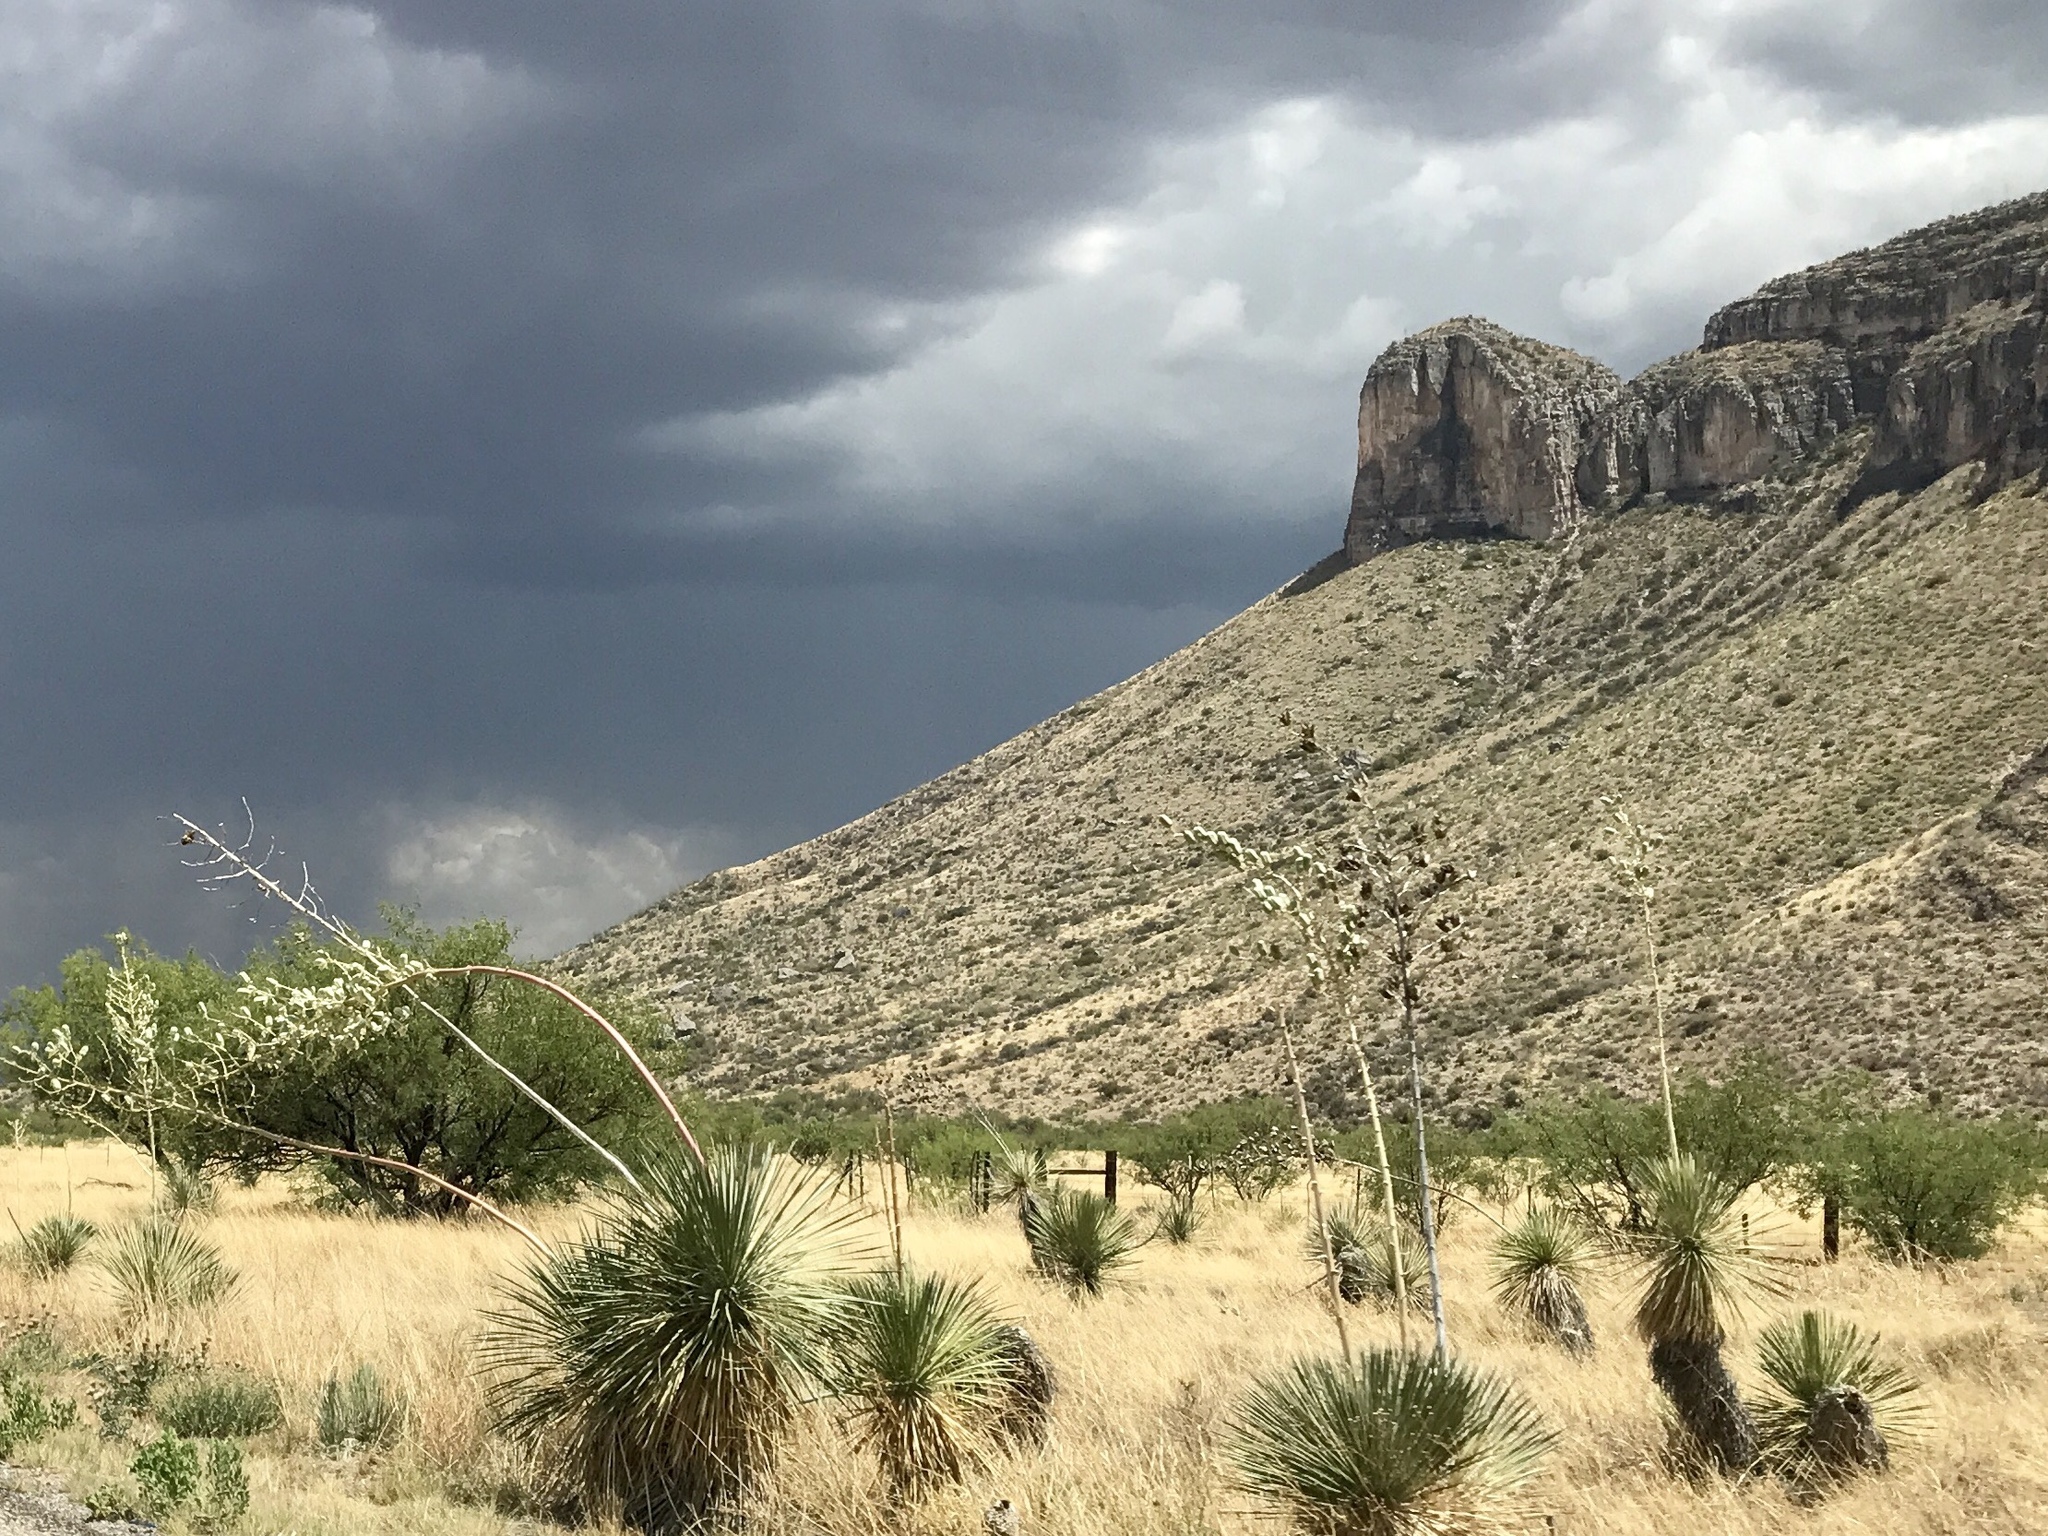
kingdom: Plantae
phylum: Tracheophyta
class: Liliopsida
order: Asparagales
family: Asparagaceae
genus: Yucca
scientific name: Yucca elata
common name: Palmella
